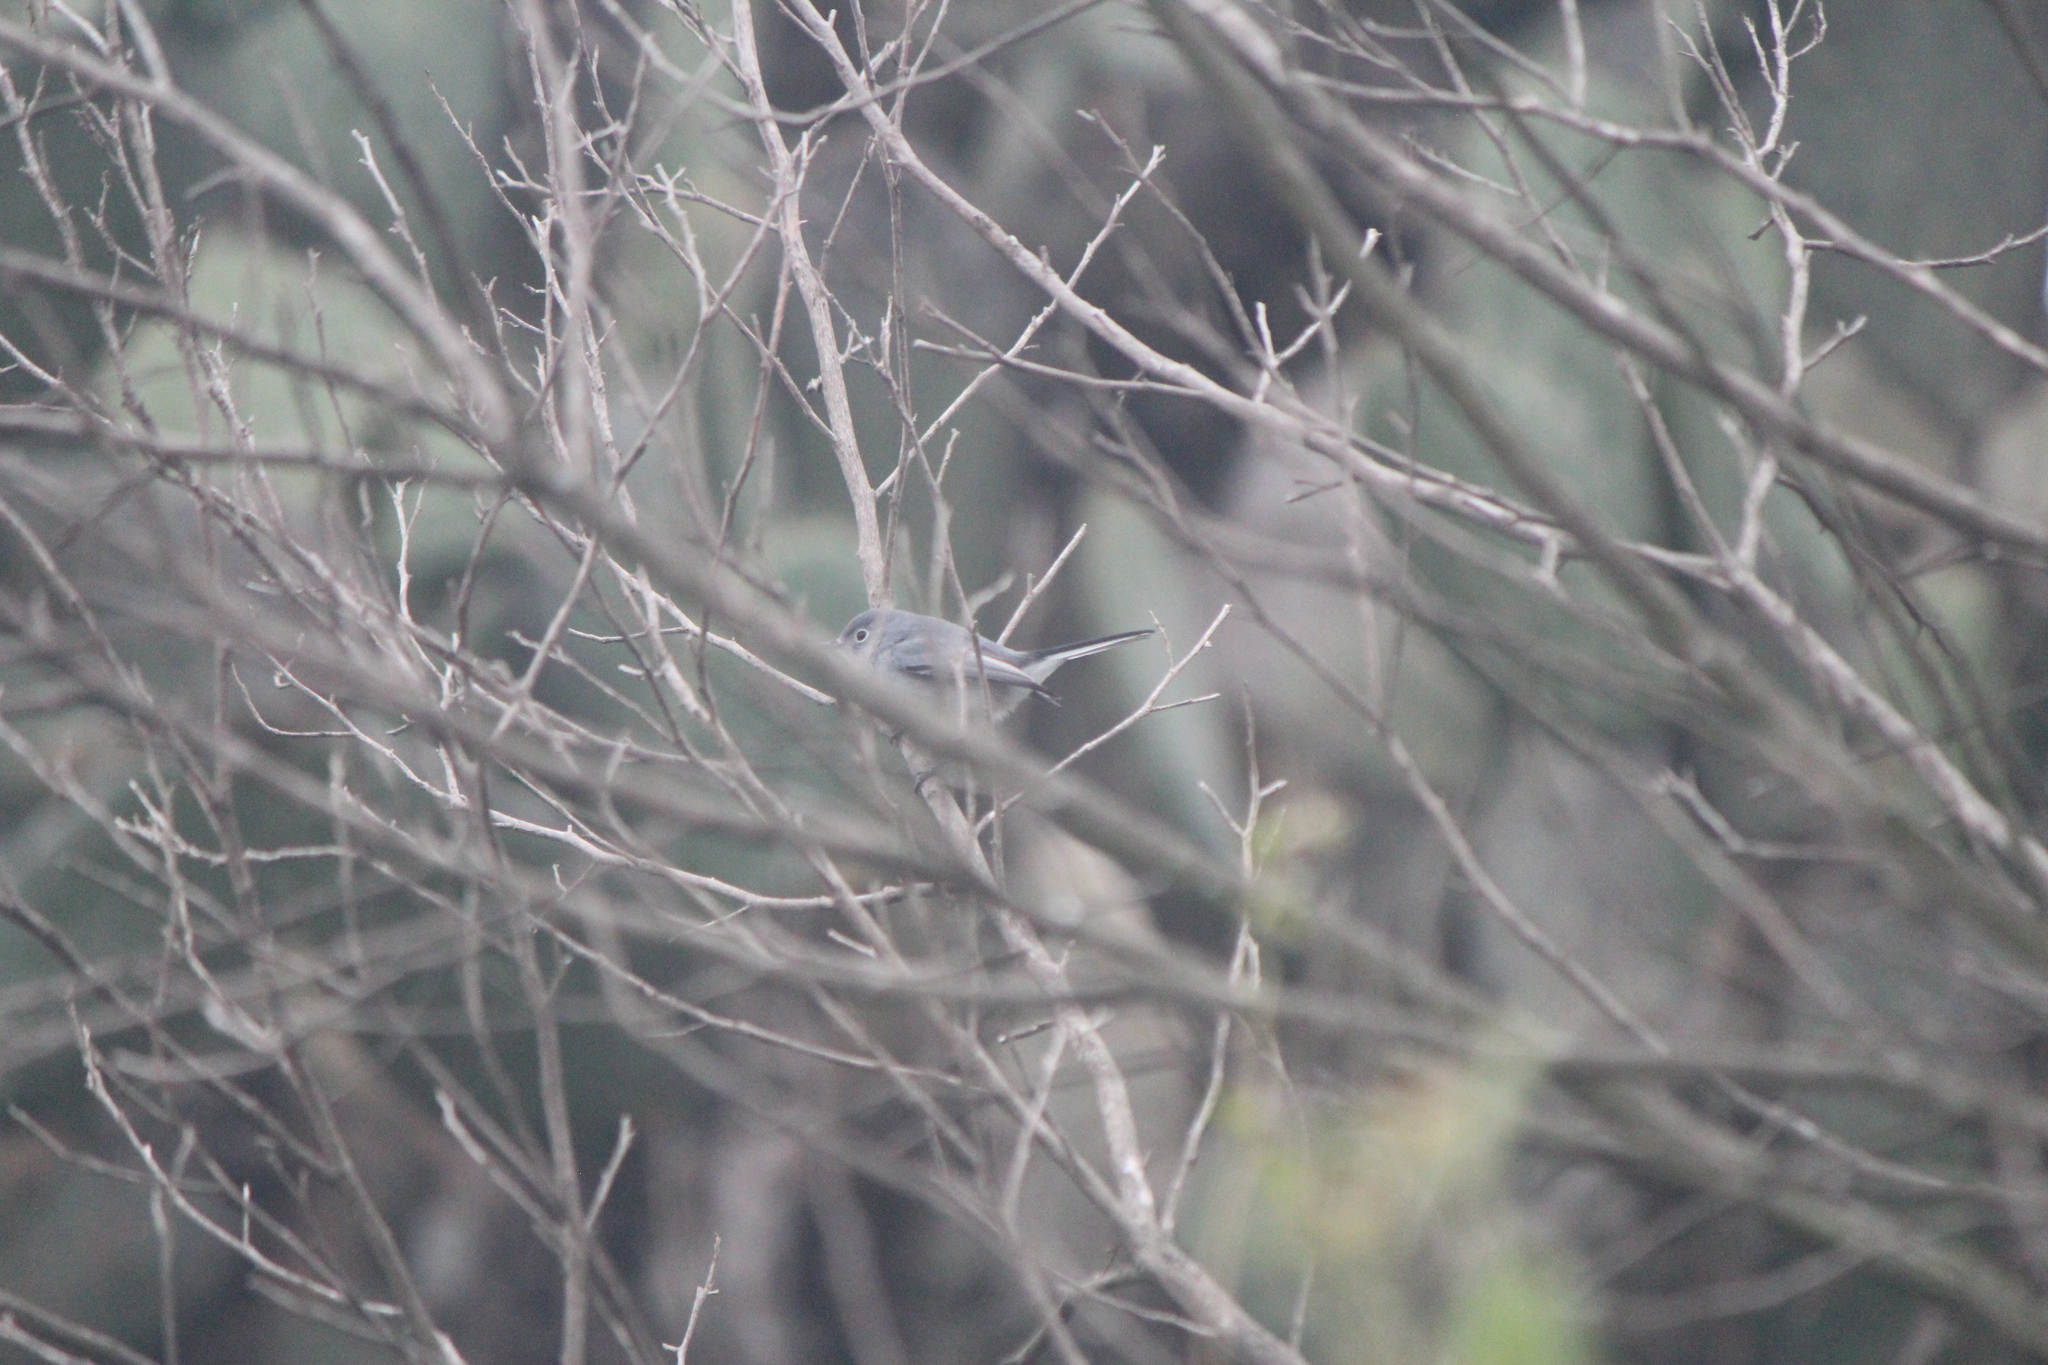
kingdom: Animalia
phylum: Chordata
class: Aves
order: Passeriformes
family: Polioptilidae
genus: Polioptila
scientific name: Polioptila caerulea
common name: Blue-gray gnatcatcher
